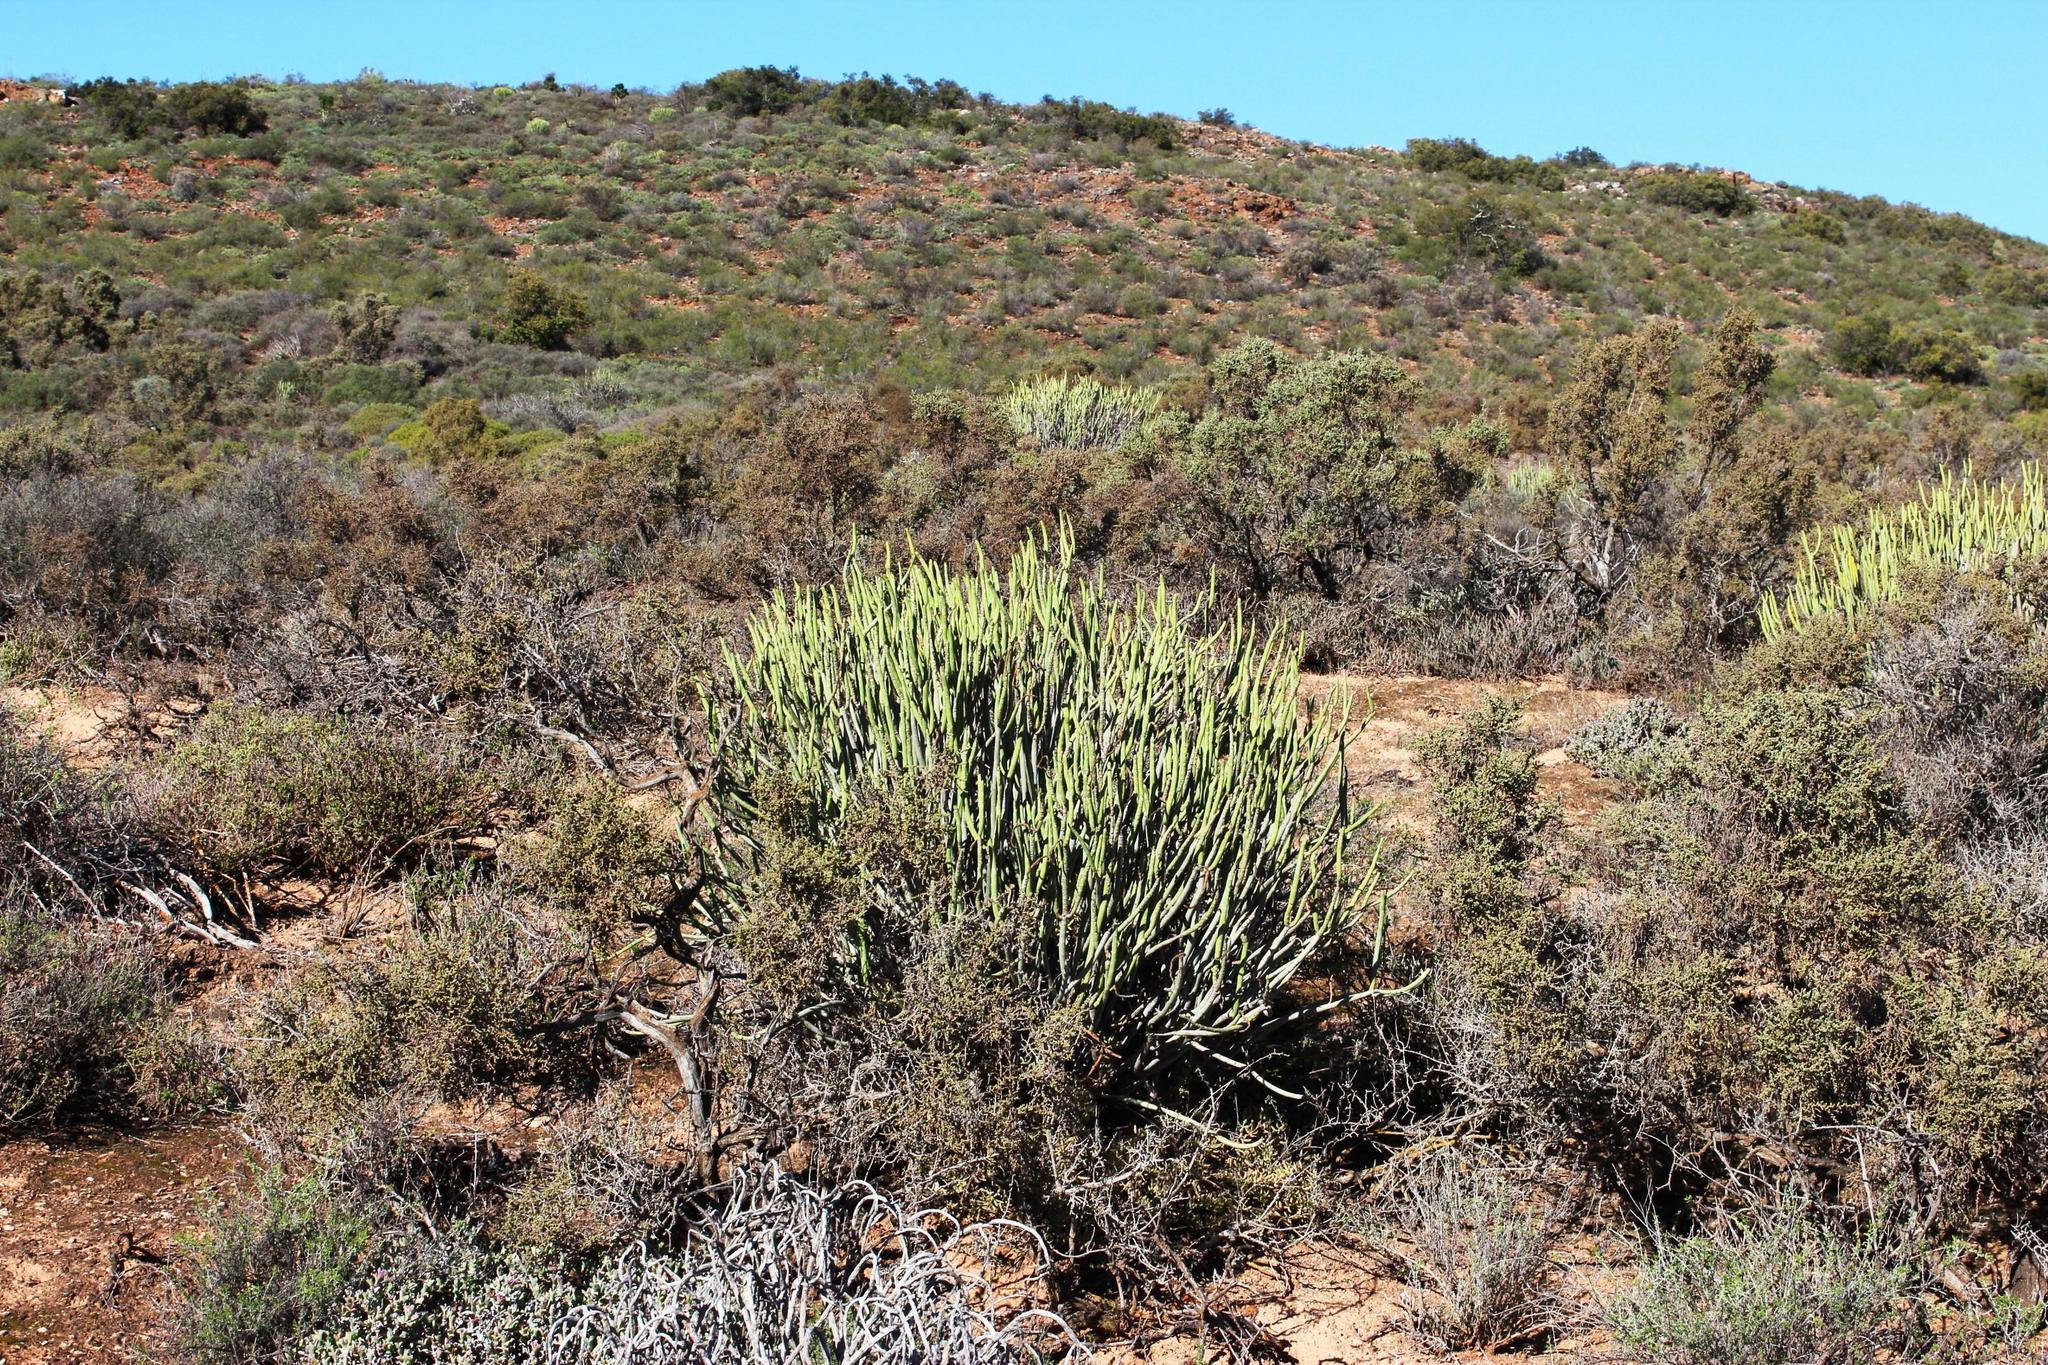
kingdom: Plantae
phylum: Tracheophyta
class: Magnoliopsida
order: Malpighiales
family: Euphorbiaceae
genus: Euphorbia
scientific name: Euphorbia mauritanica
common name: Jackal's-food
